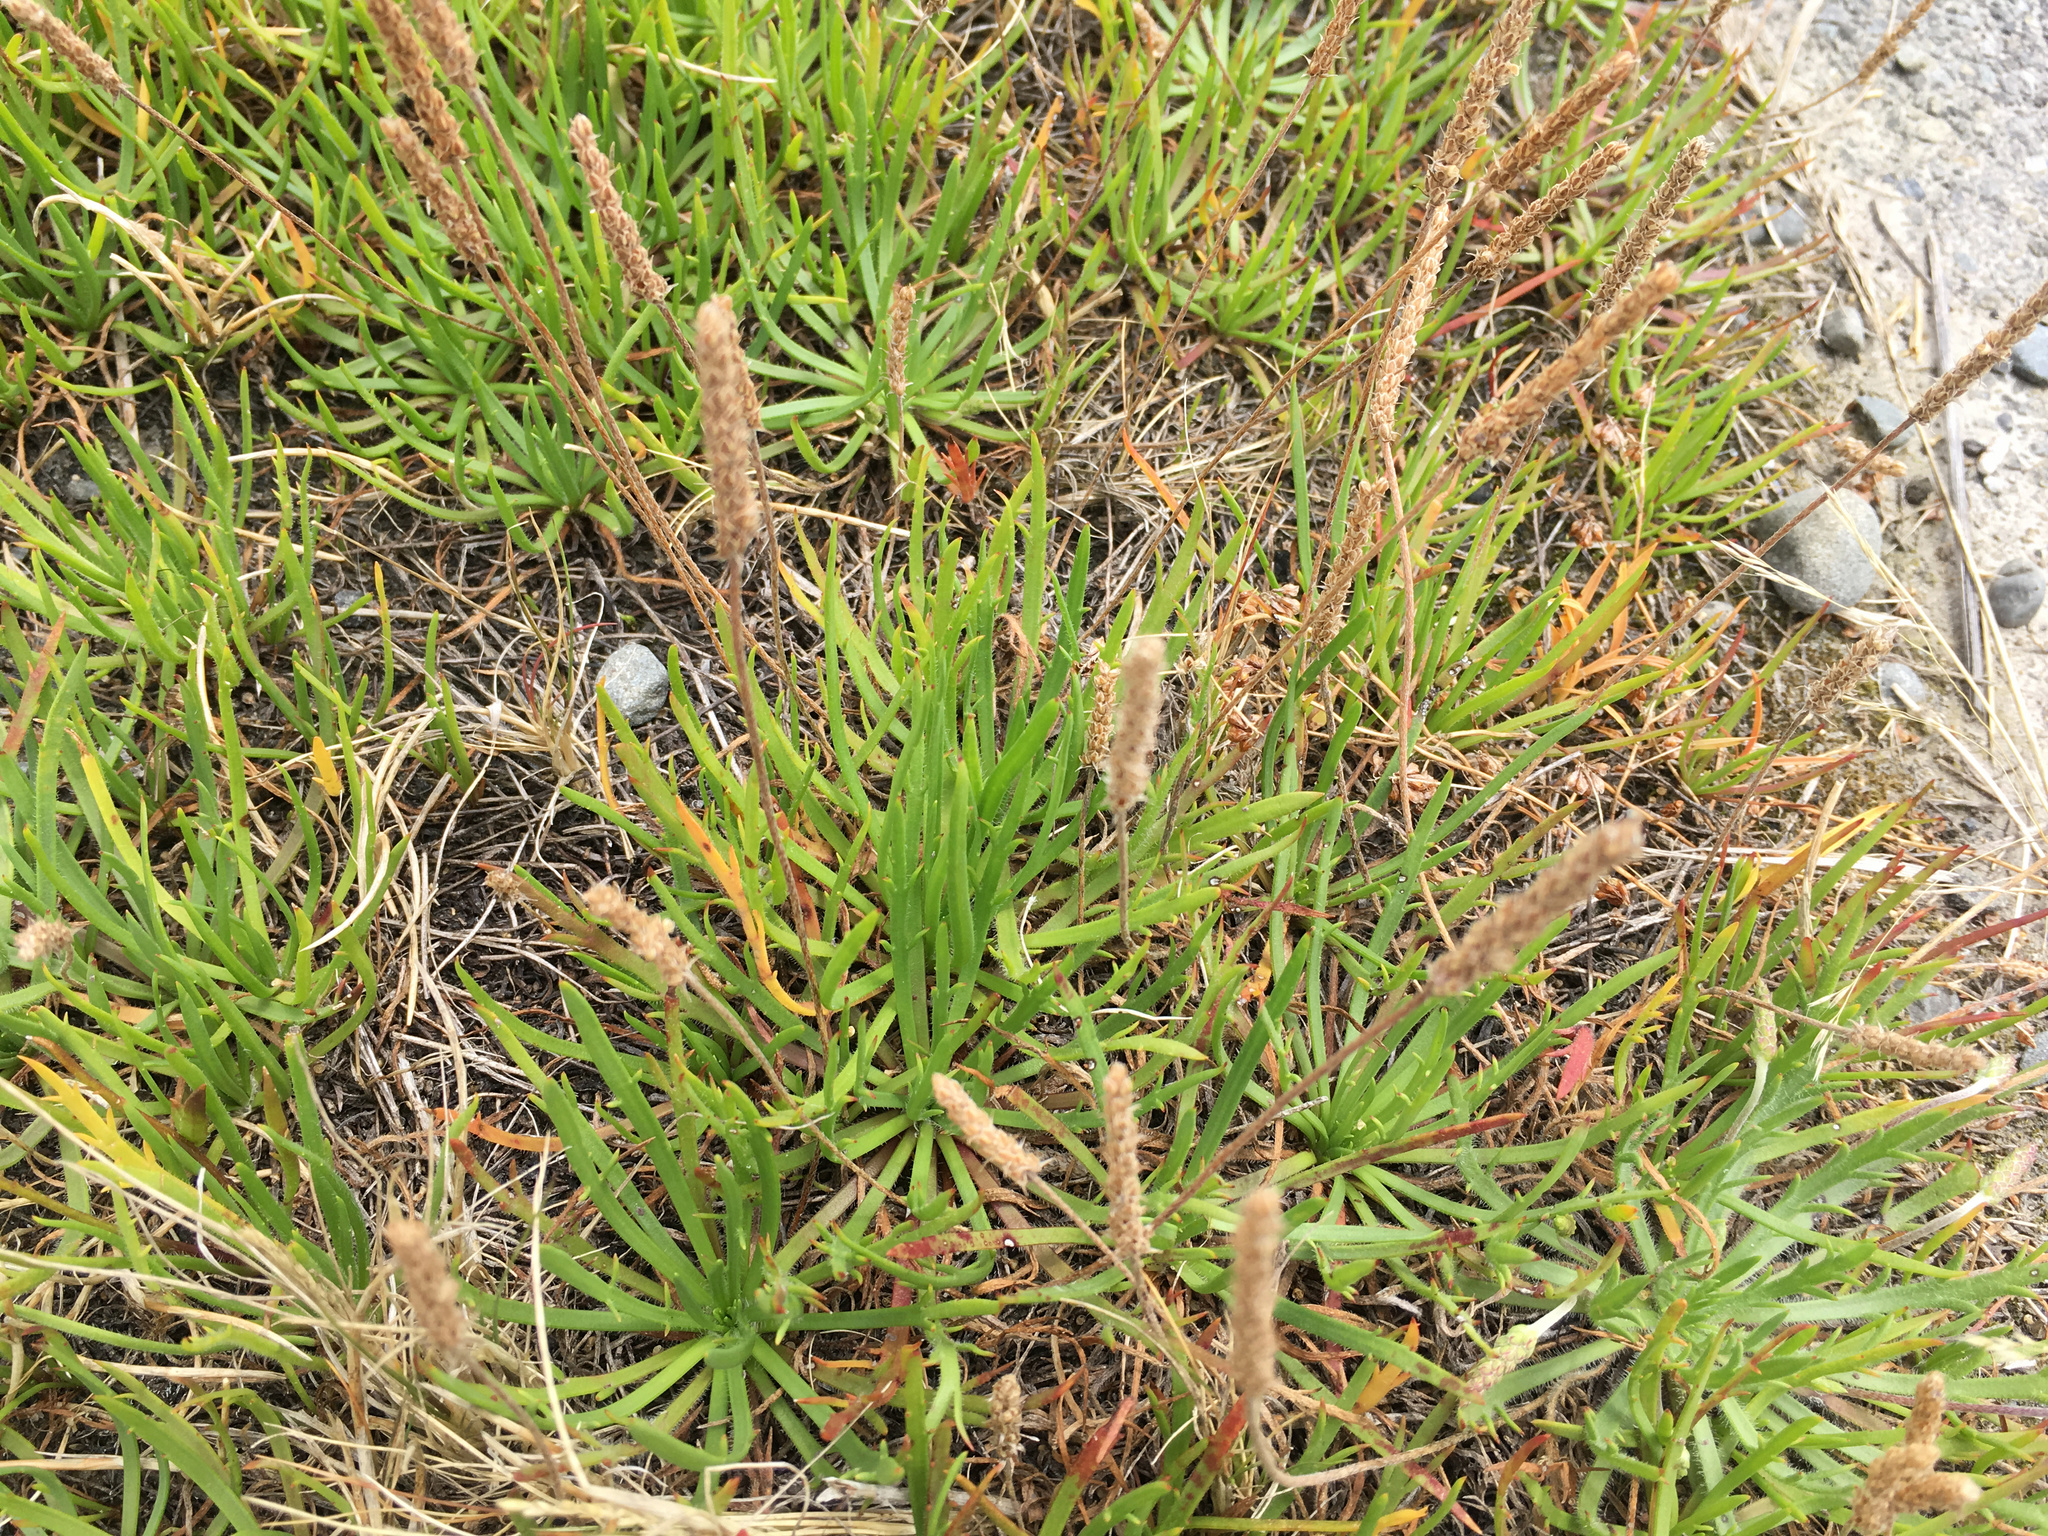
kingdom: Plantae
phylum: Tracheophyta
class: Magnoliopsida
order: Lamiales
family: Plantaginaceae
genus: Plantago
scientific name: Plantago coronopus
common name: Buck's-horn plantain
